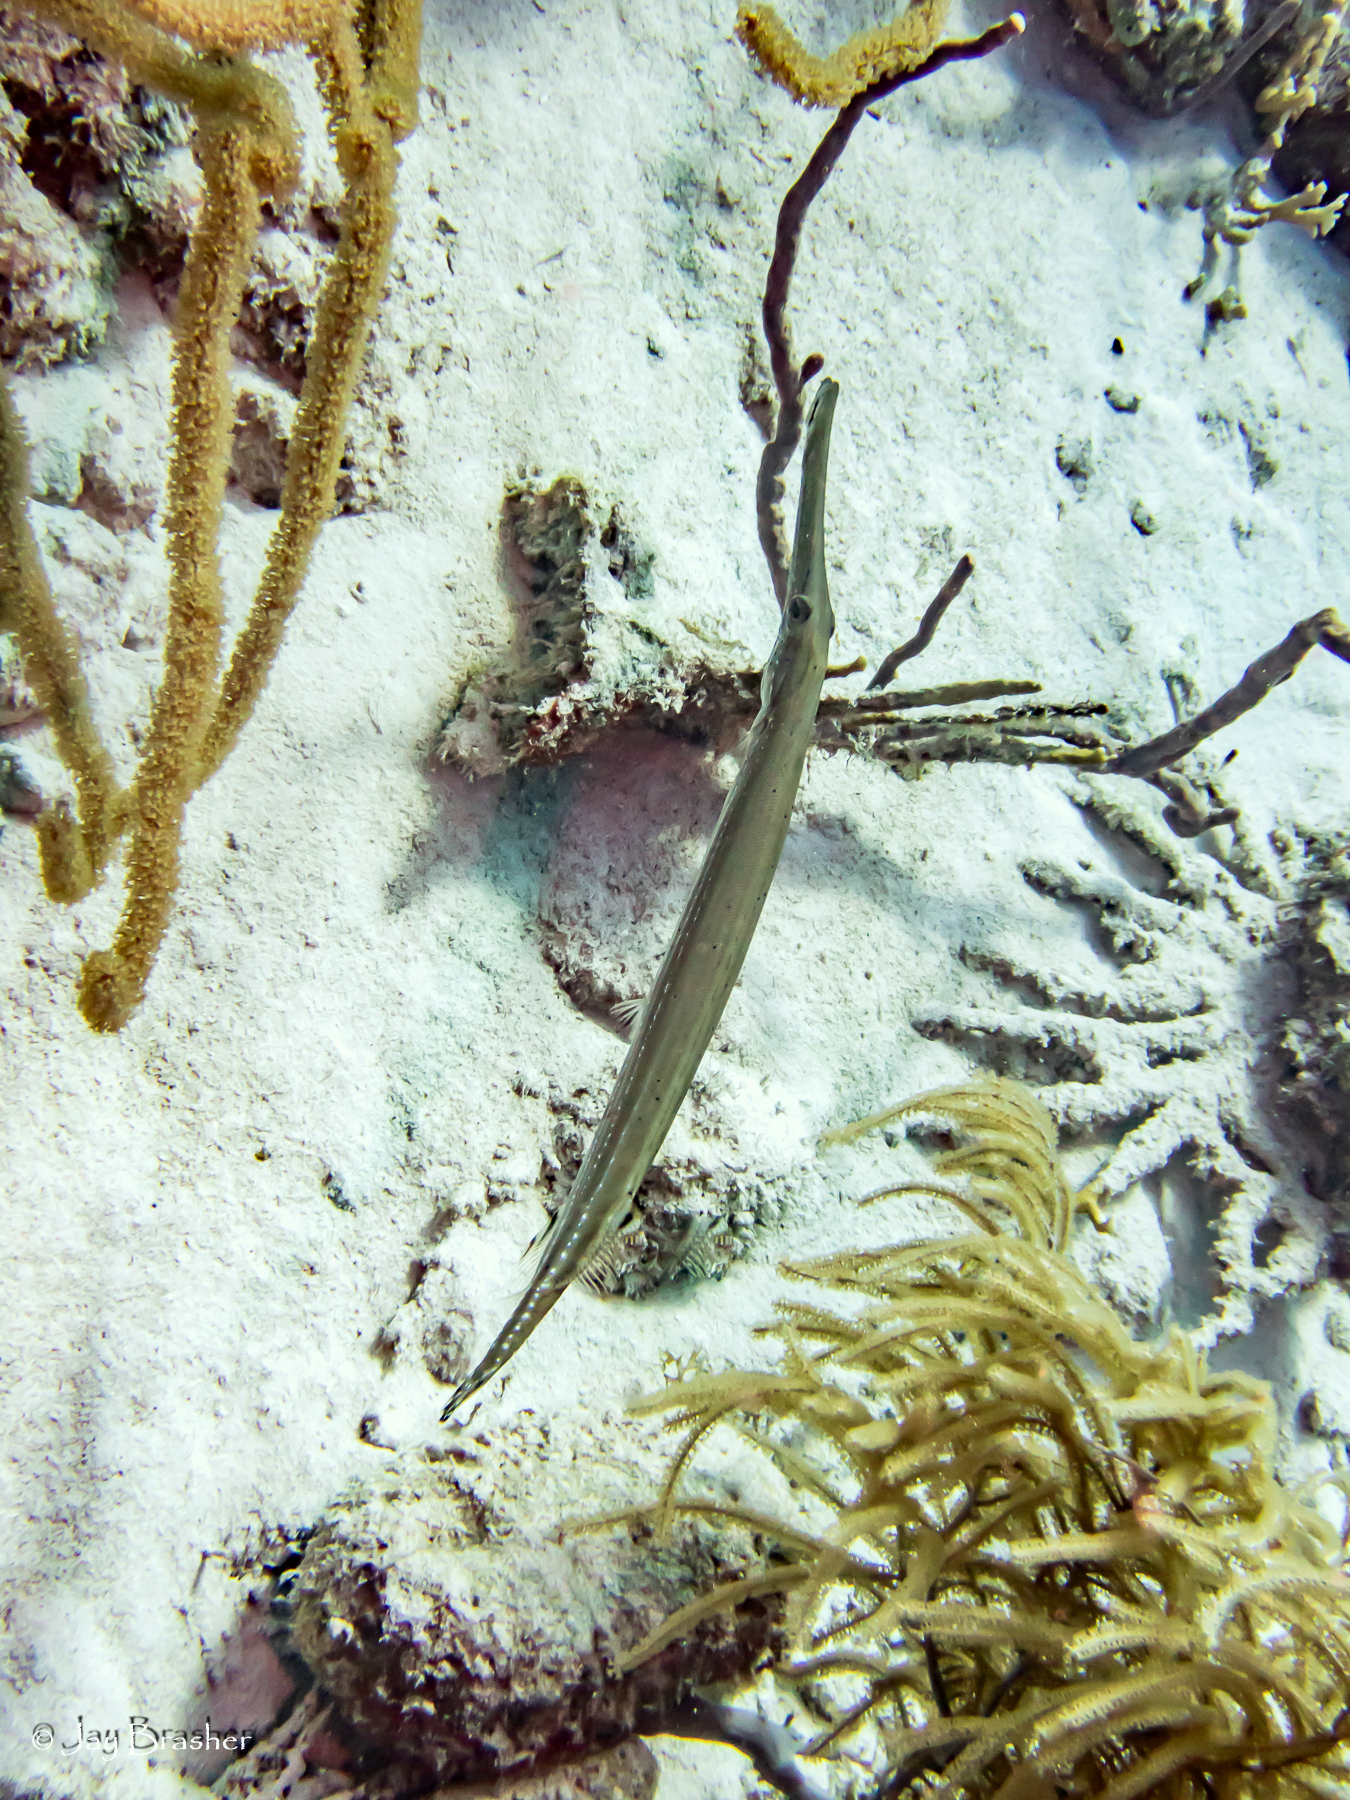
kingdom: Animalia
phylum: Chordata
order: Syngnathiformes
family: Aulostomidae
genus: Aulostomus
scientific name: Aulostomus maculatus
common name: West atlantic trumpetfish
